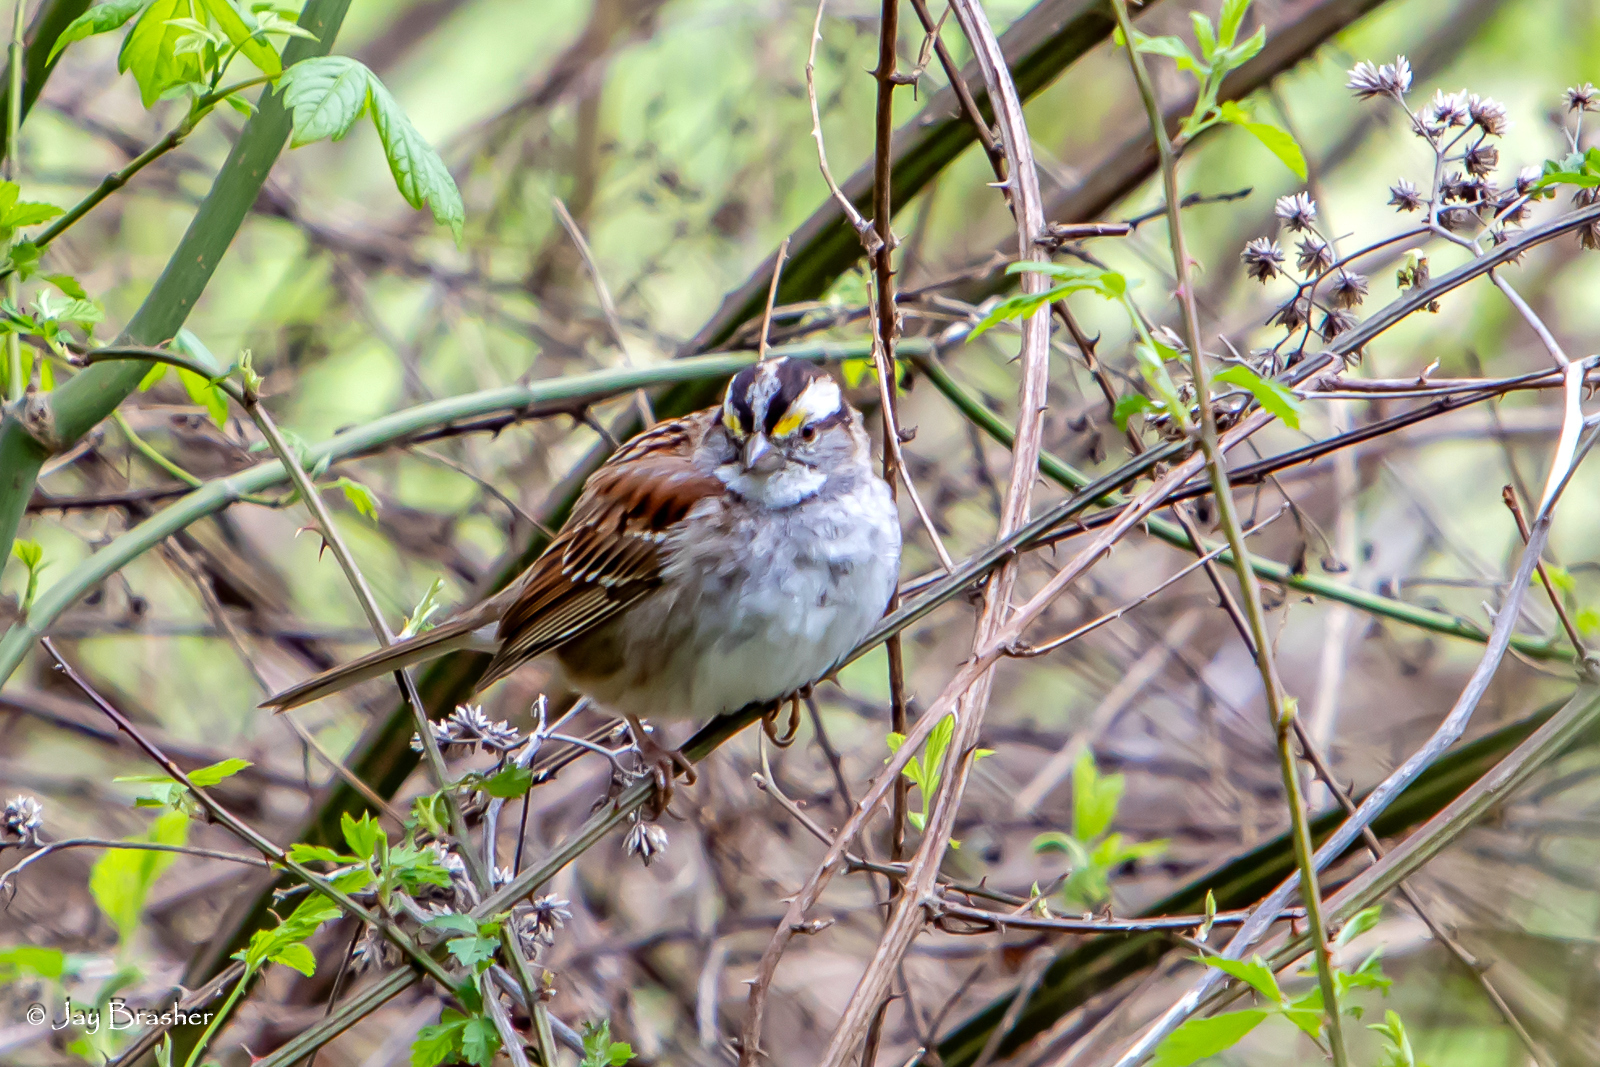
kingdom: Animalia
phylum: Chordata
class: Aves
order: Passeriformes
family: Passerellidae
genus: Zonotrichia
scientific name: Zonotrichia albicollis
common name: White-throated sparrow
